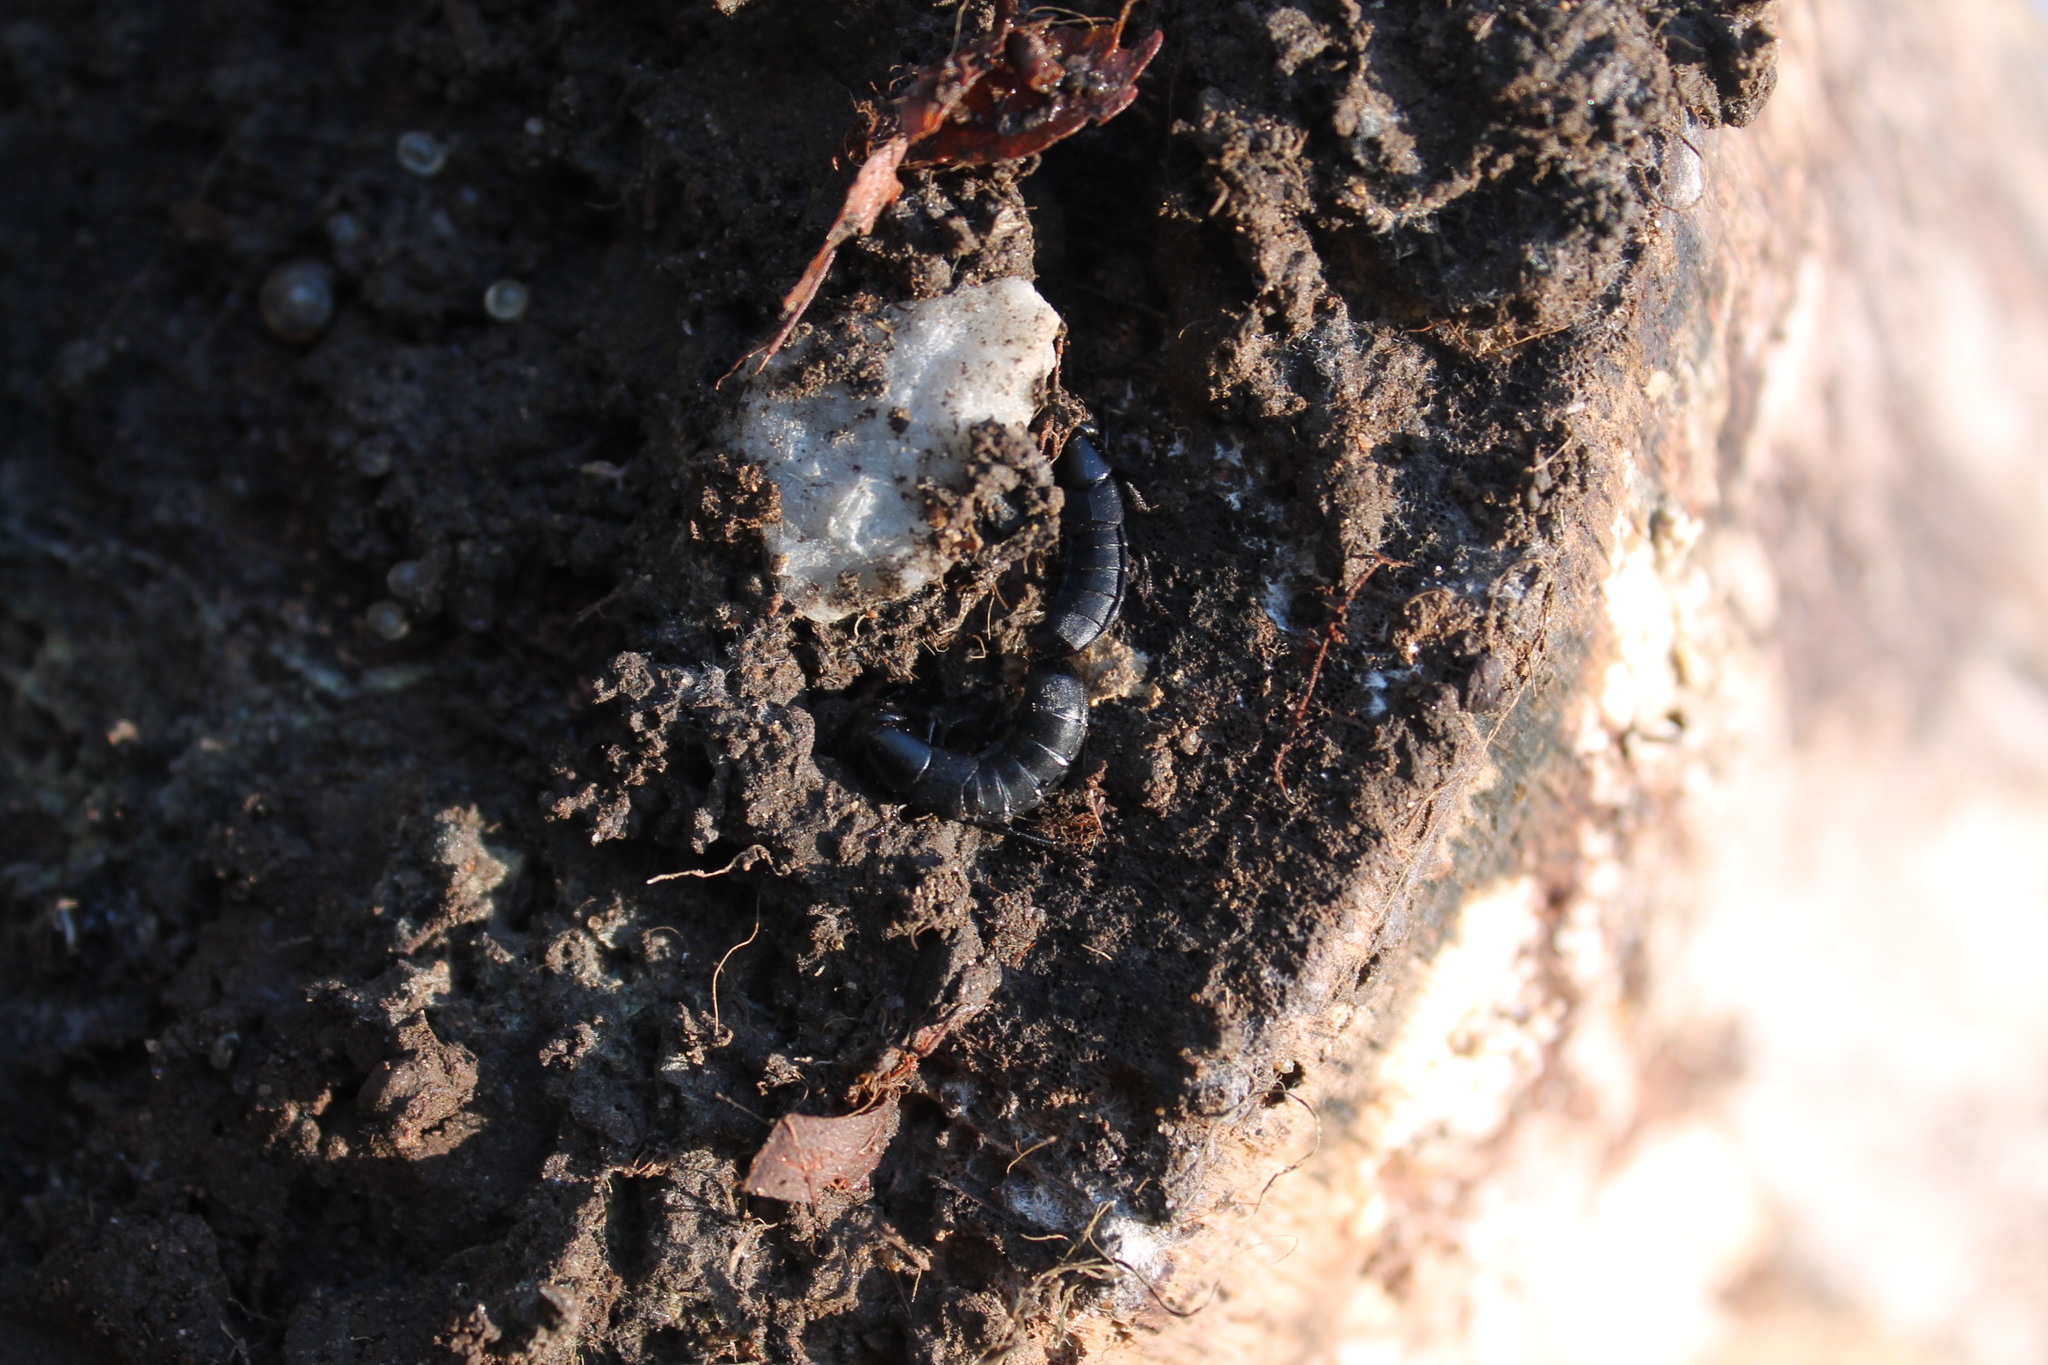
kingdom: Animalia
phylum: Arthropoda
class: Insecta
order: Coleoptera
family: Staphylinidae
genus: Ocypus
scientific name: Ocypus nitens
